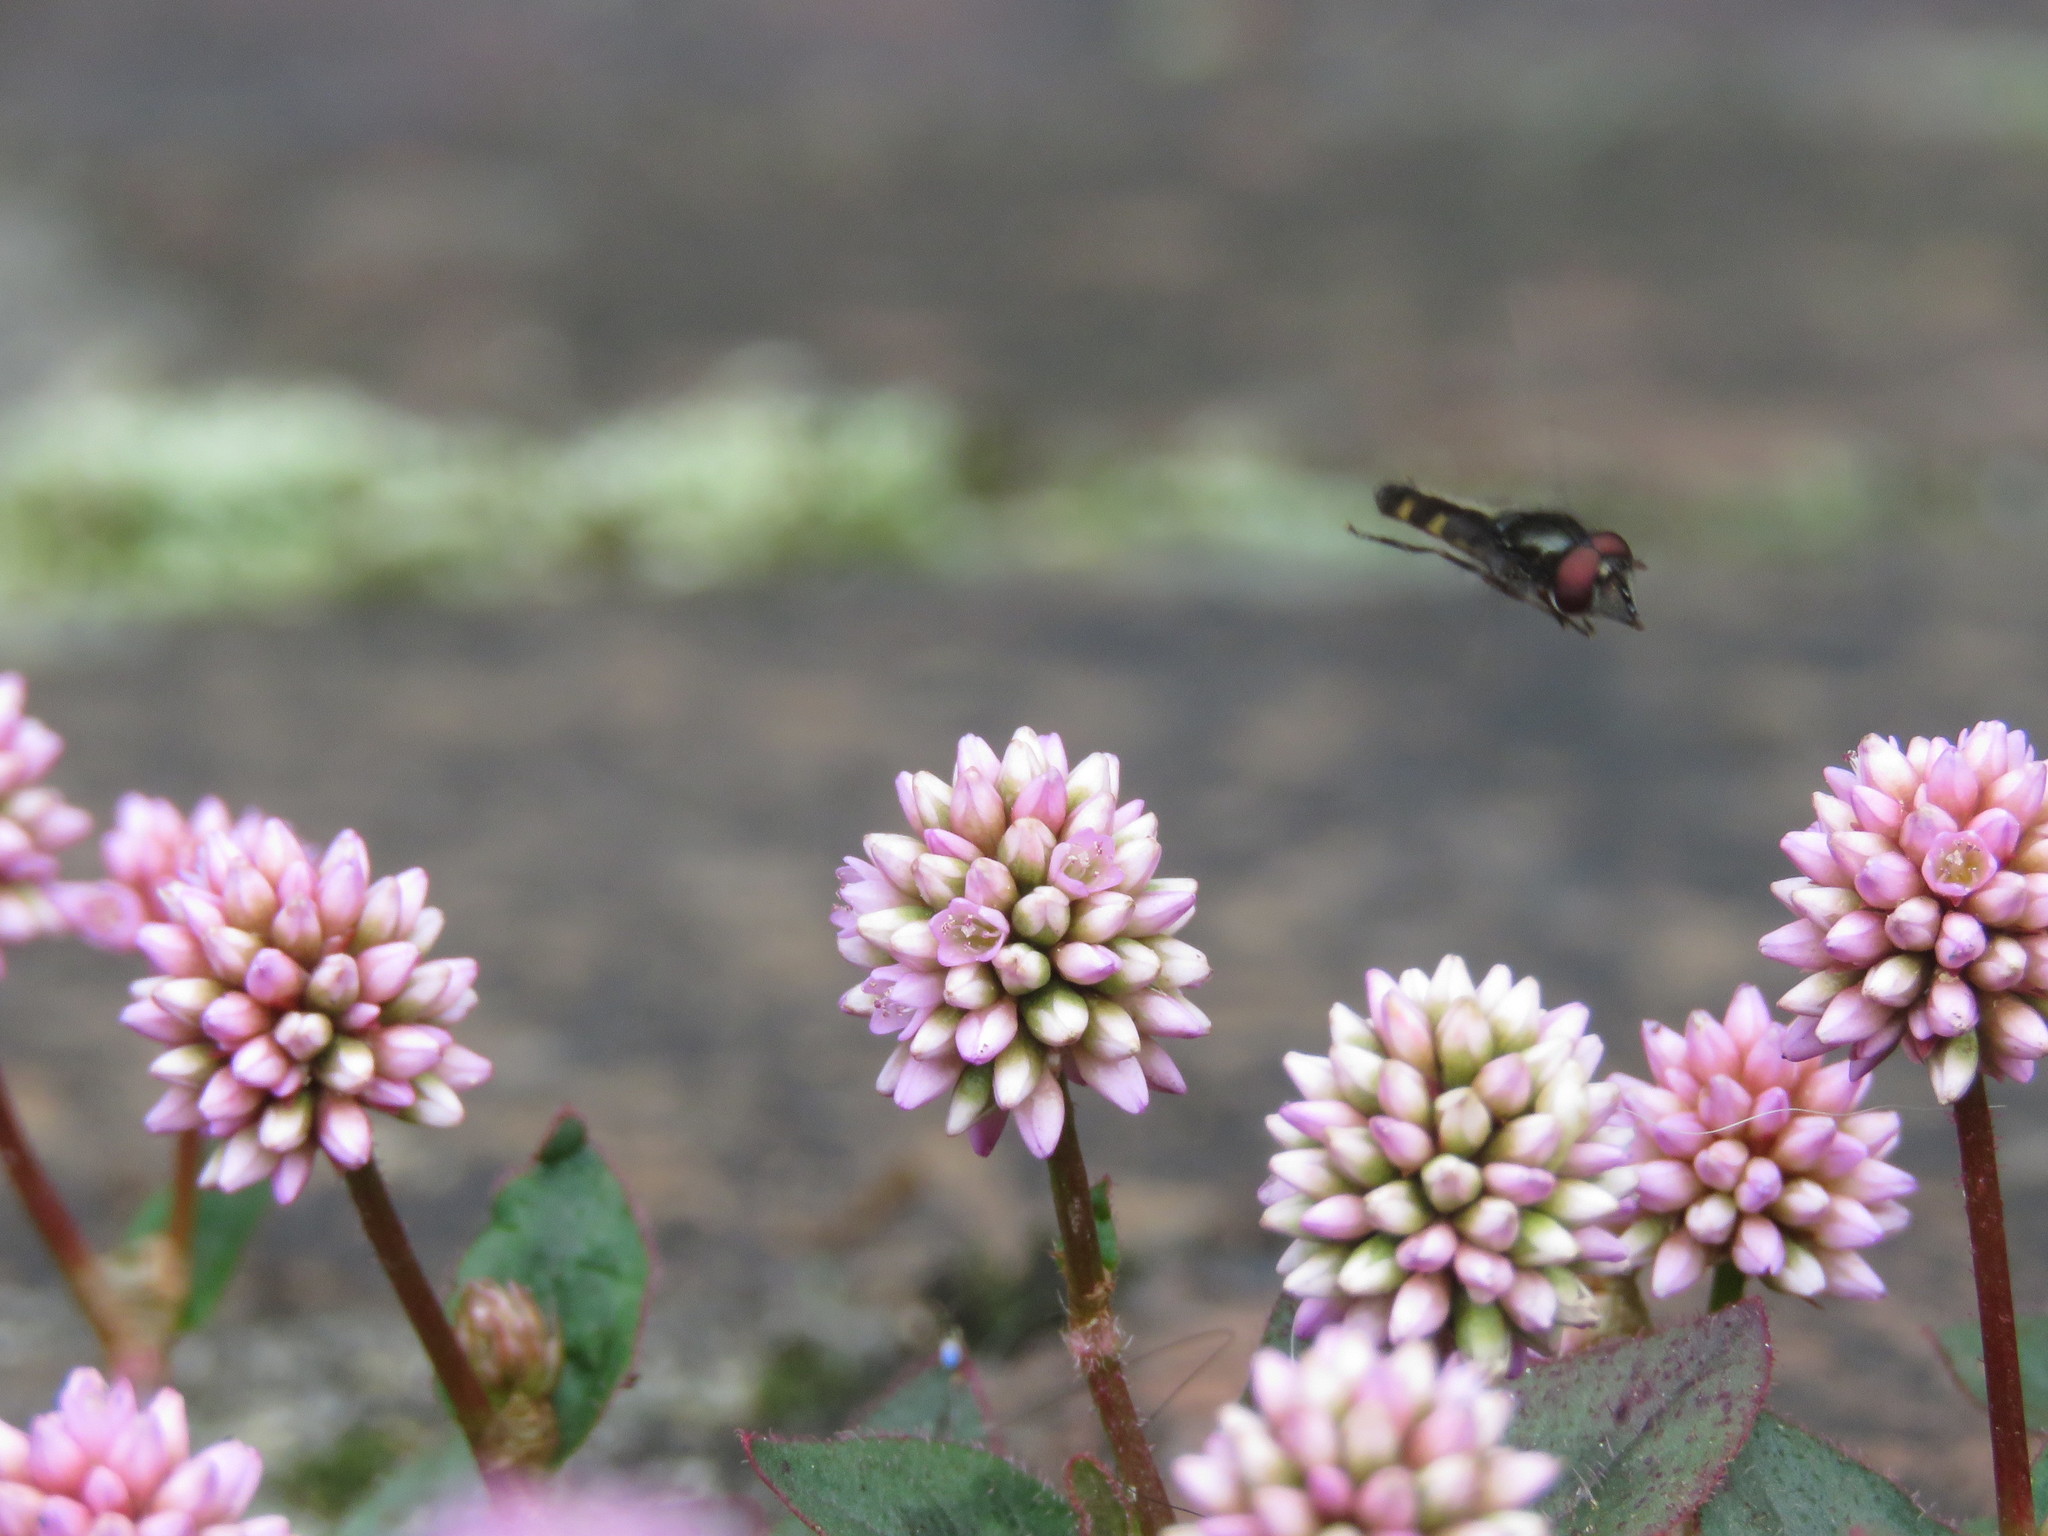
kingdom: Plantae
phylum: Tracheophyta
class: Magnoliopsida
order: Caryophyllales
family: Polygonaceae
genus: Persicaria
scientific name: Persicaria capitata
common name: Pinkhead smartweed
